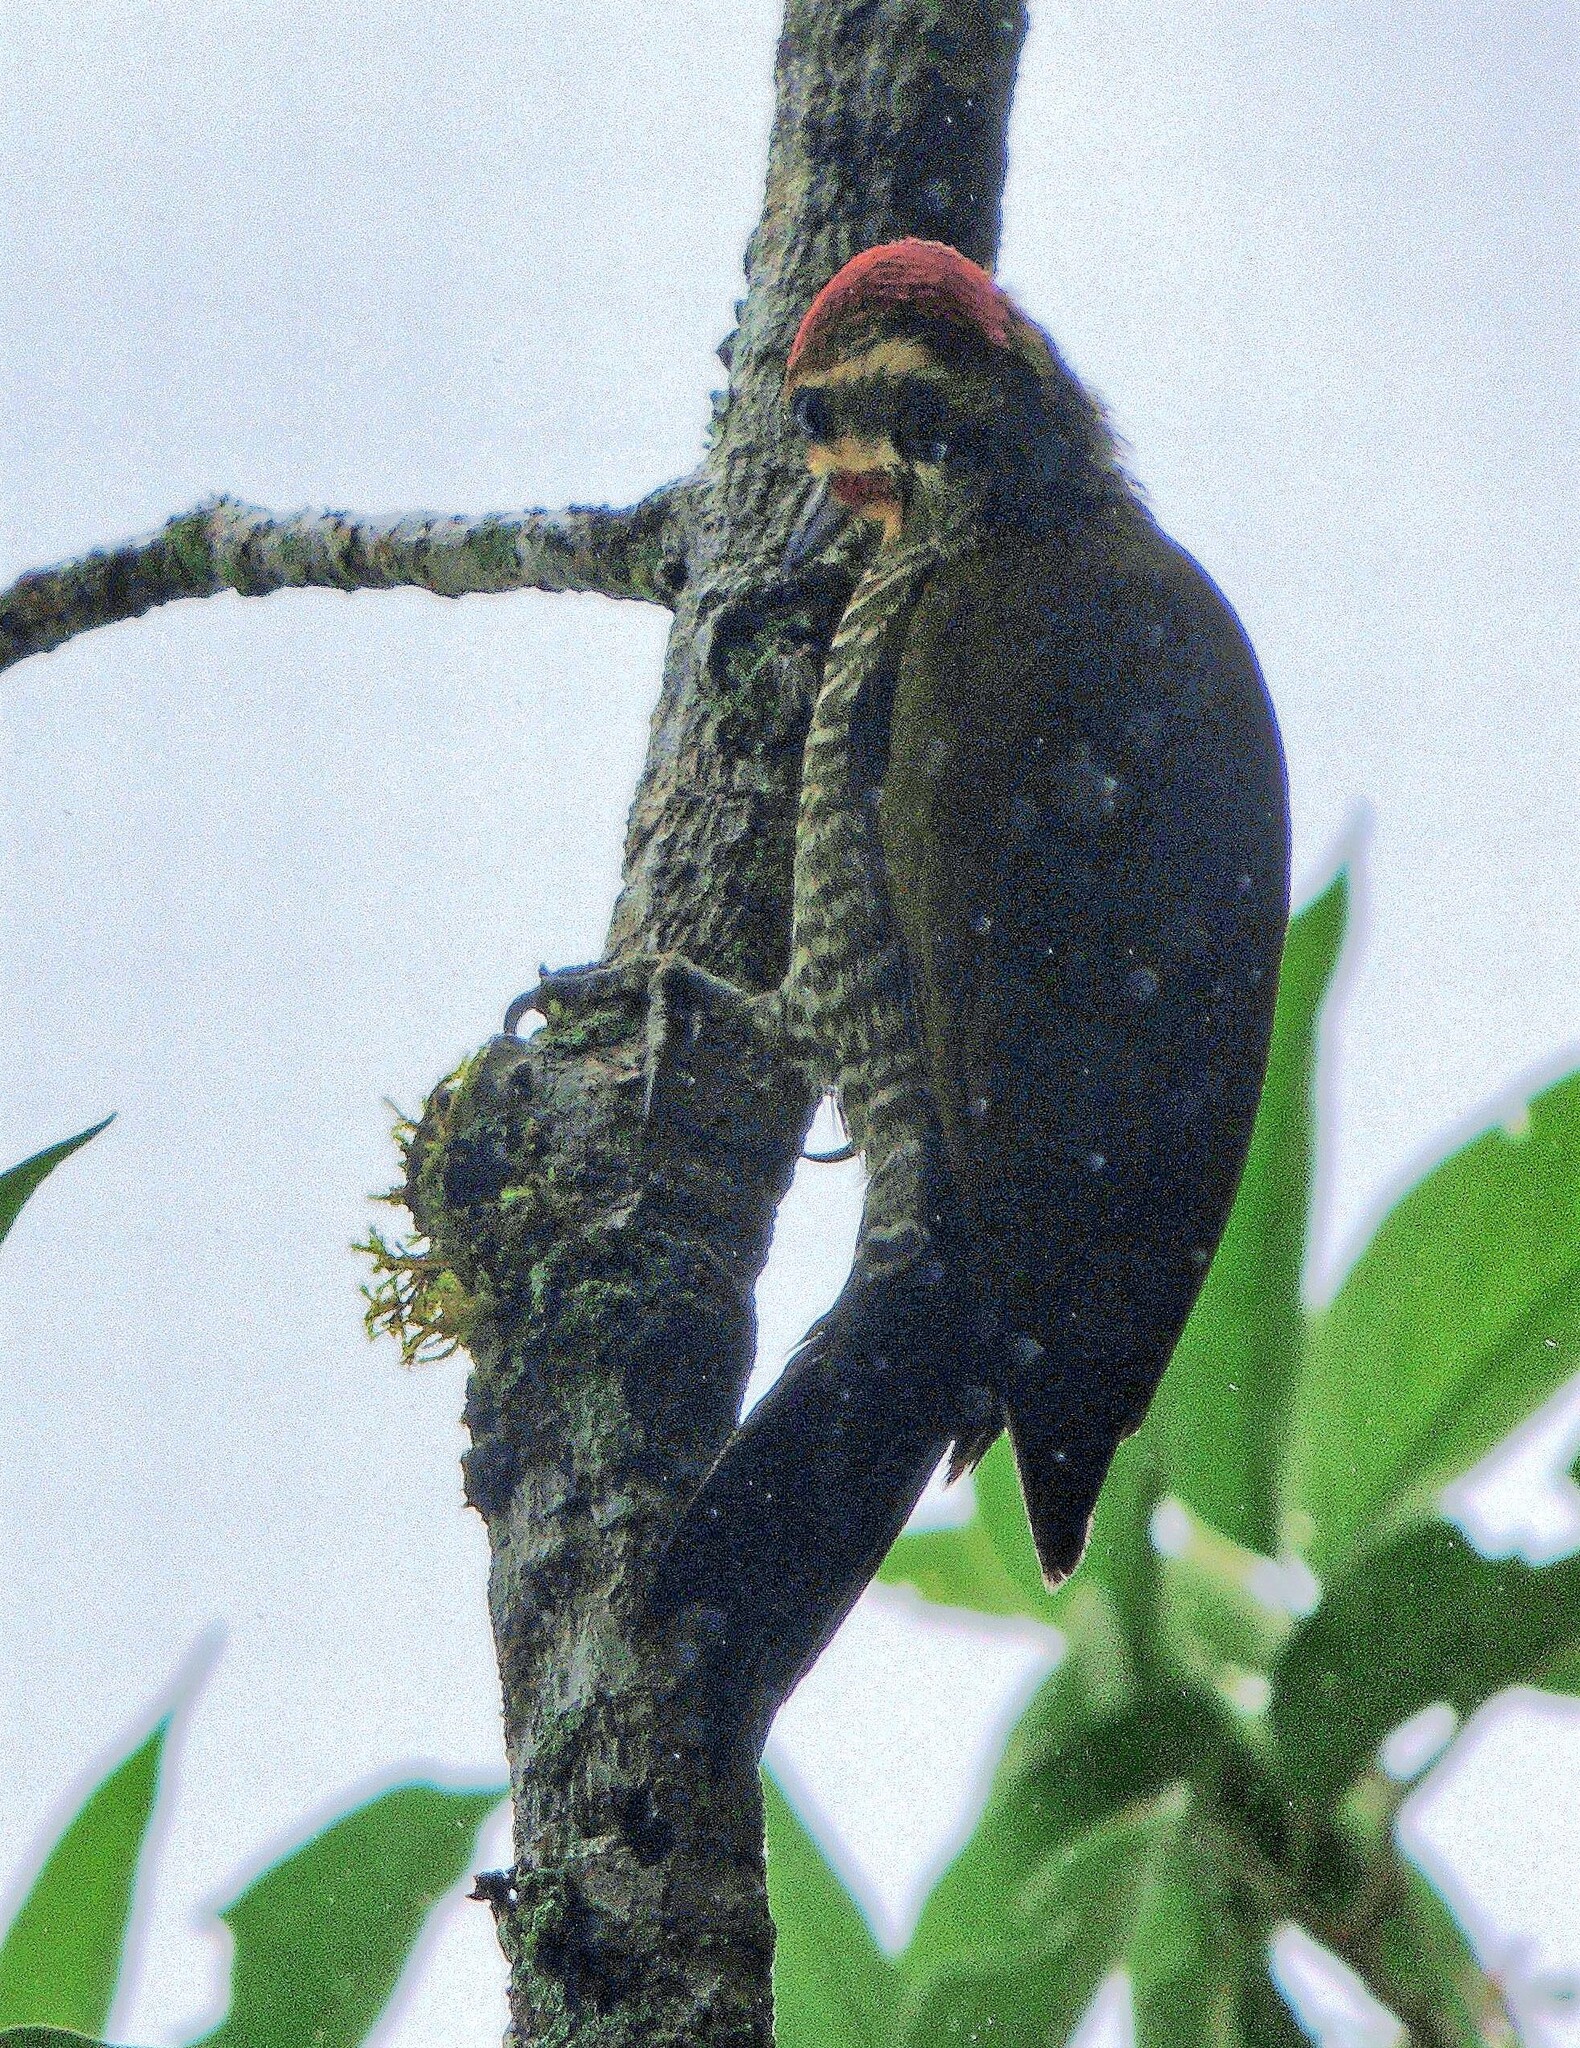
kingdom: Animalia
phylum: Chordata
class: Aves
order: Piciformes
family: Picidae
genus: Piculus
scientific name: Piculus aurulentus
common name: Yellow-browed woodpecker
